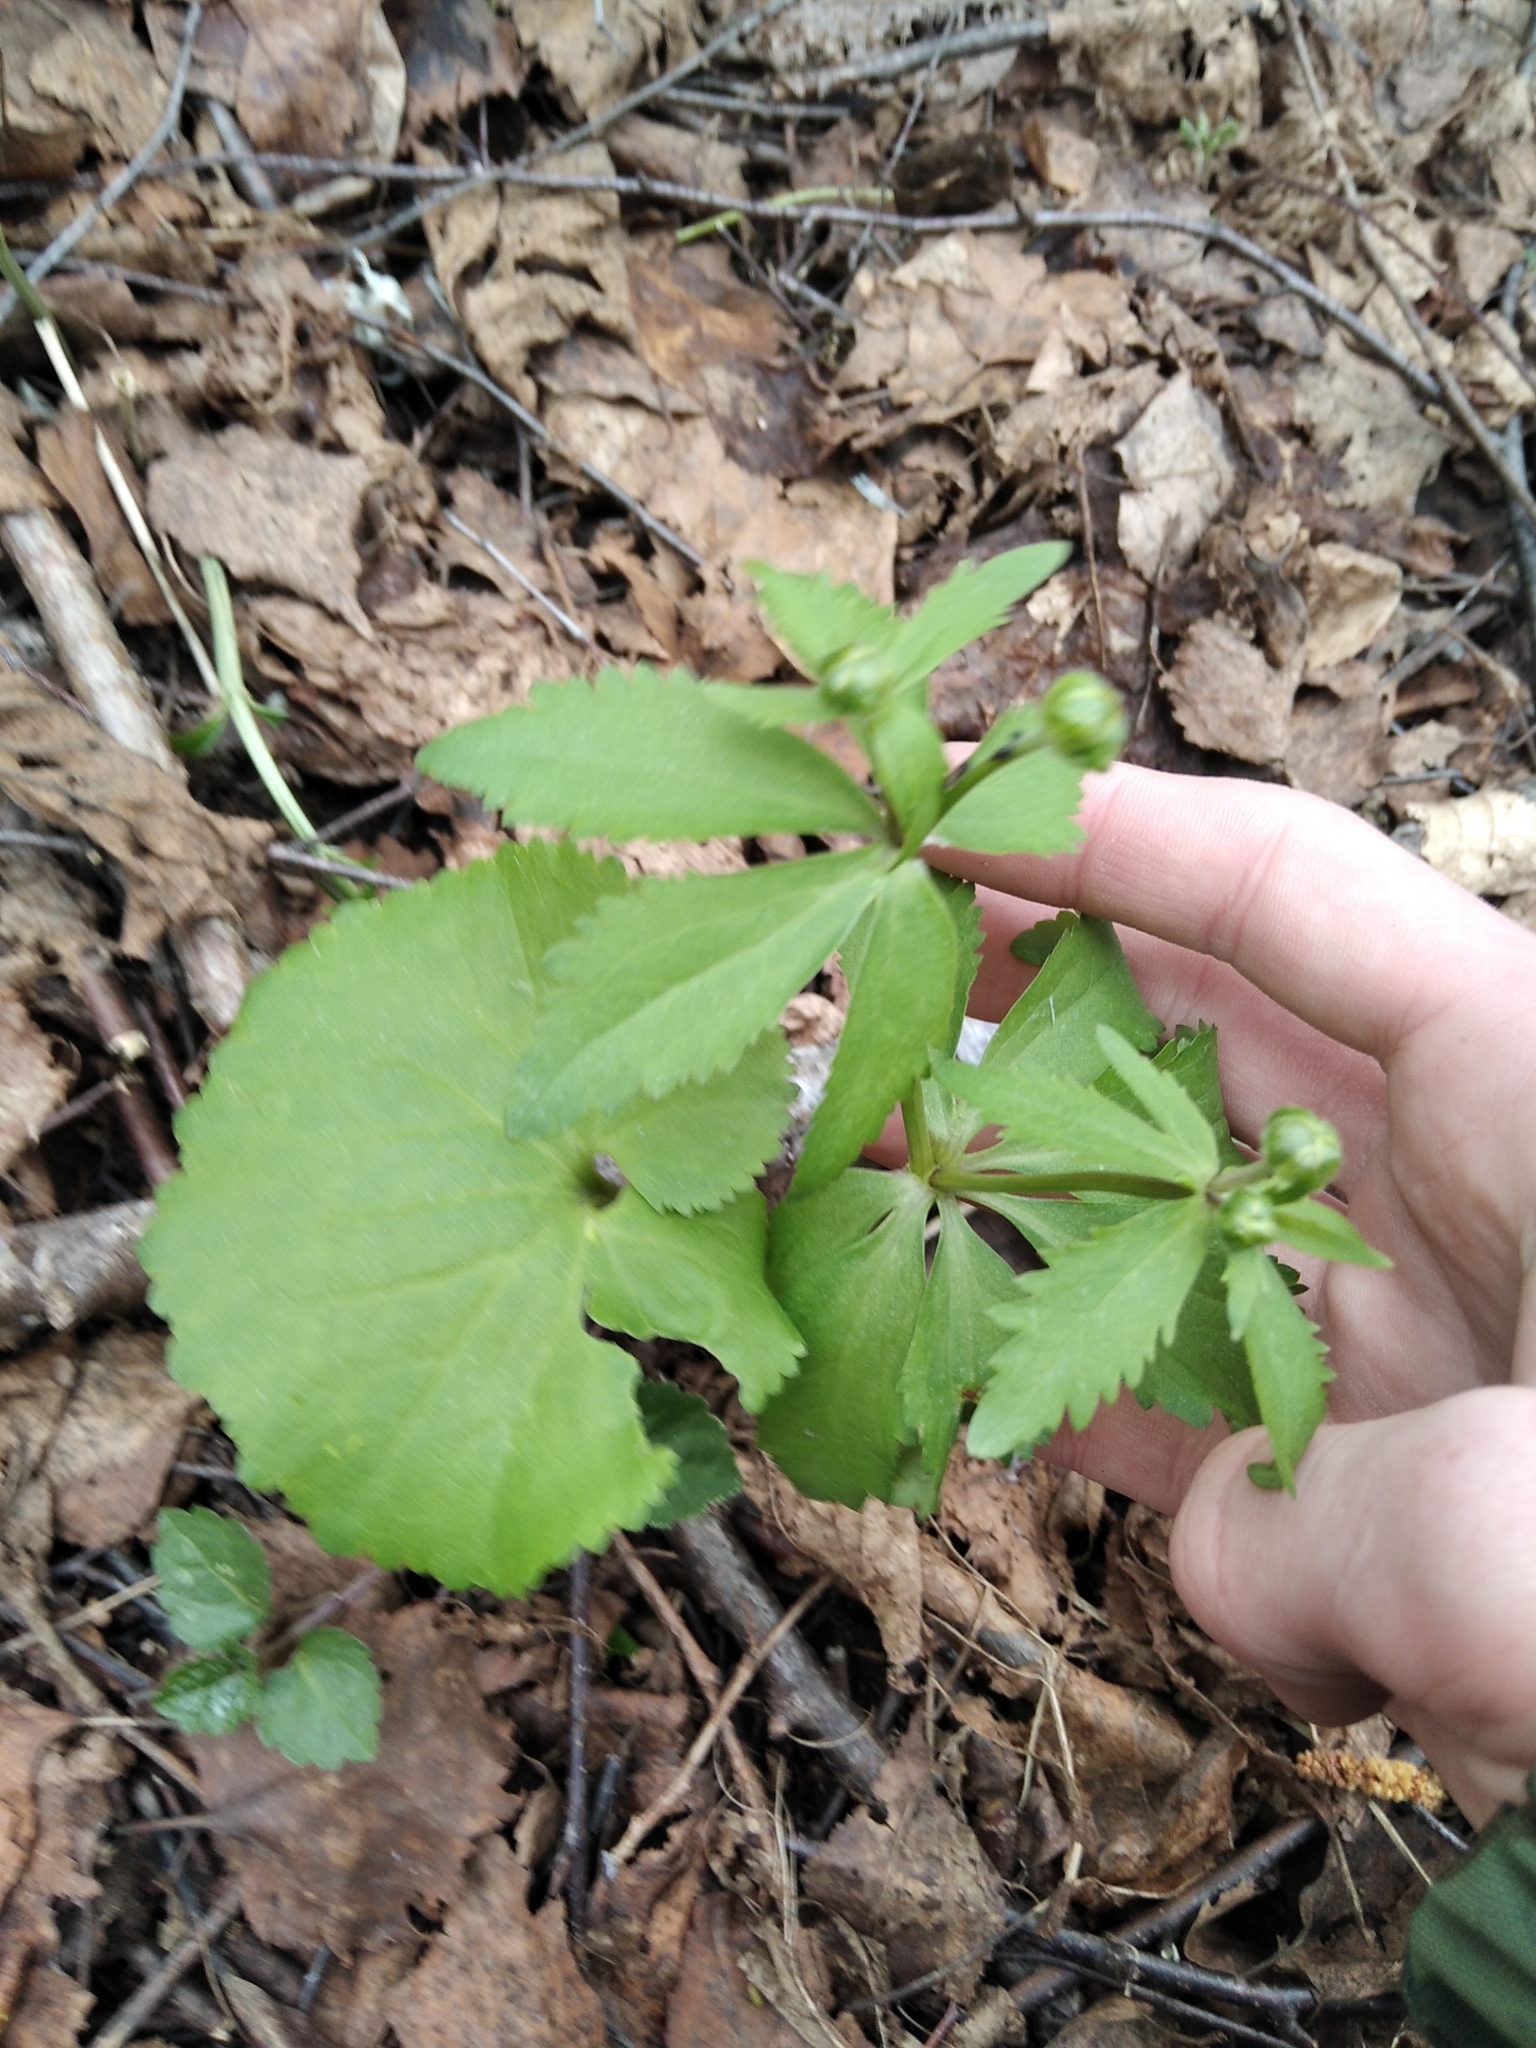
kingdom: Plantae
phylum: Tracheophyta
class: Magnoliopsida
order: Ranunculales
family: Ranunculaceae
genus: Ranunculus
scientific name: Ranunculus cassubicus
